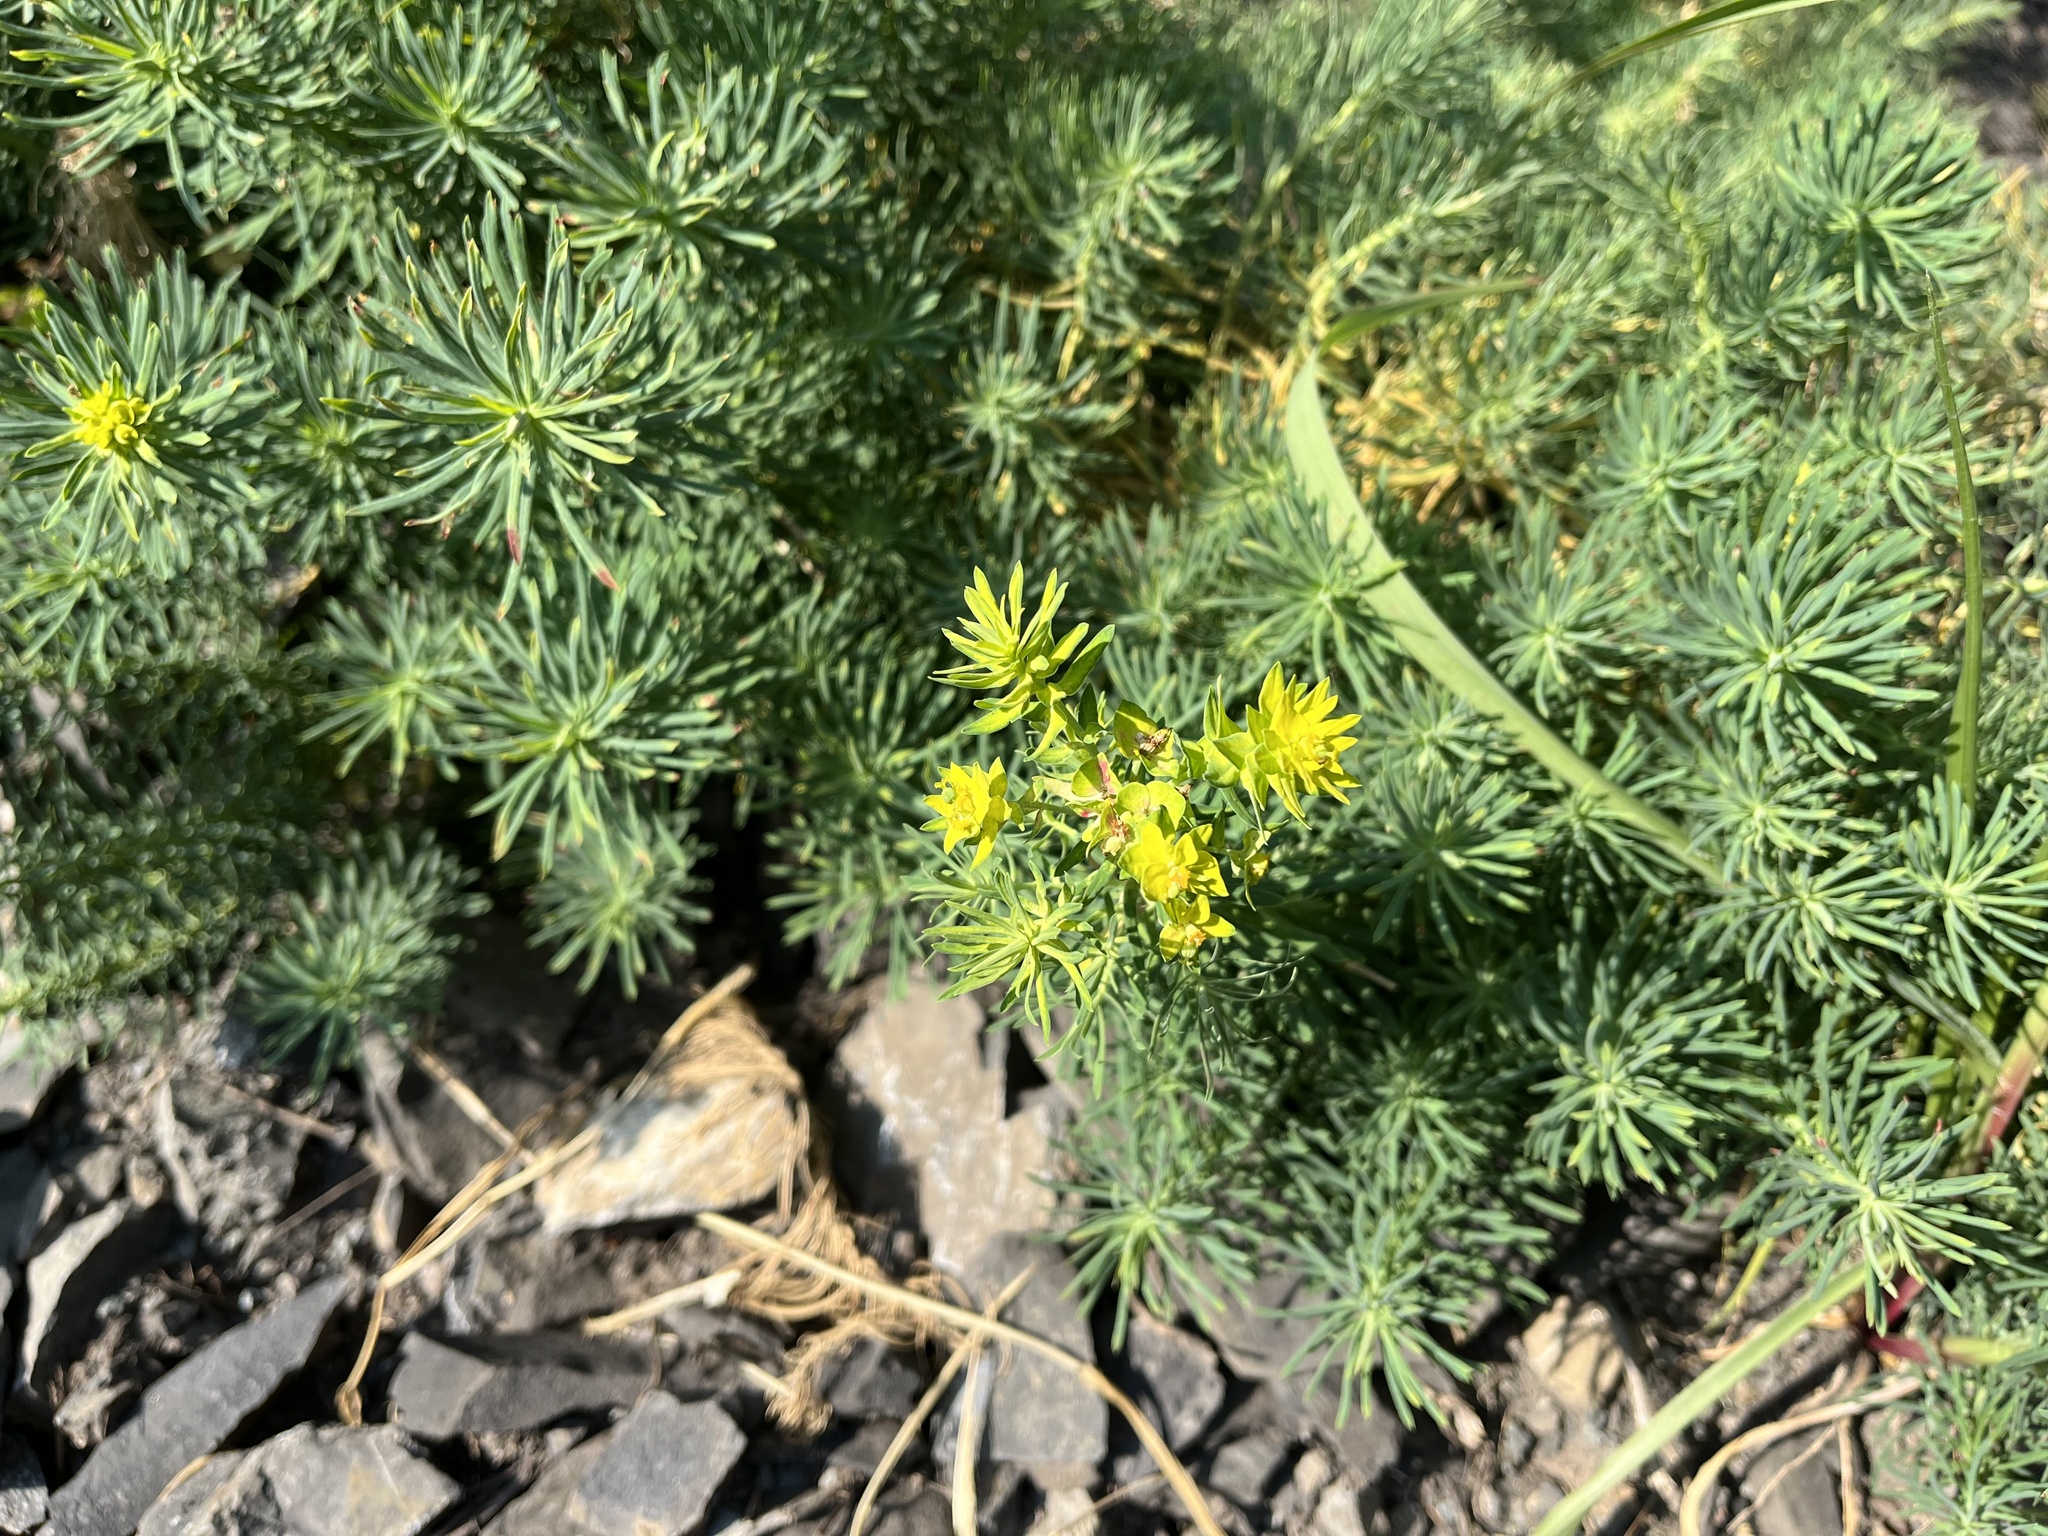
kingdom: Plantae
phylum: Tracheophyta
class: Magnoliopsida
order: Malpighiales
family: Euphorbiaceae
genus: Euphorbia
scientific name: Euphorbia cyparissias
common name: Cypress spurge
